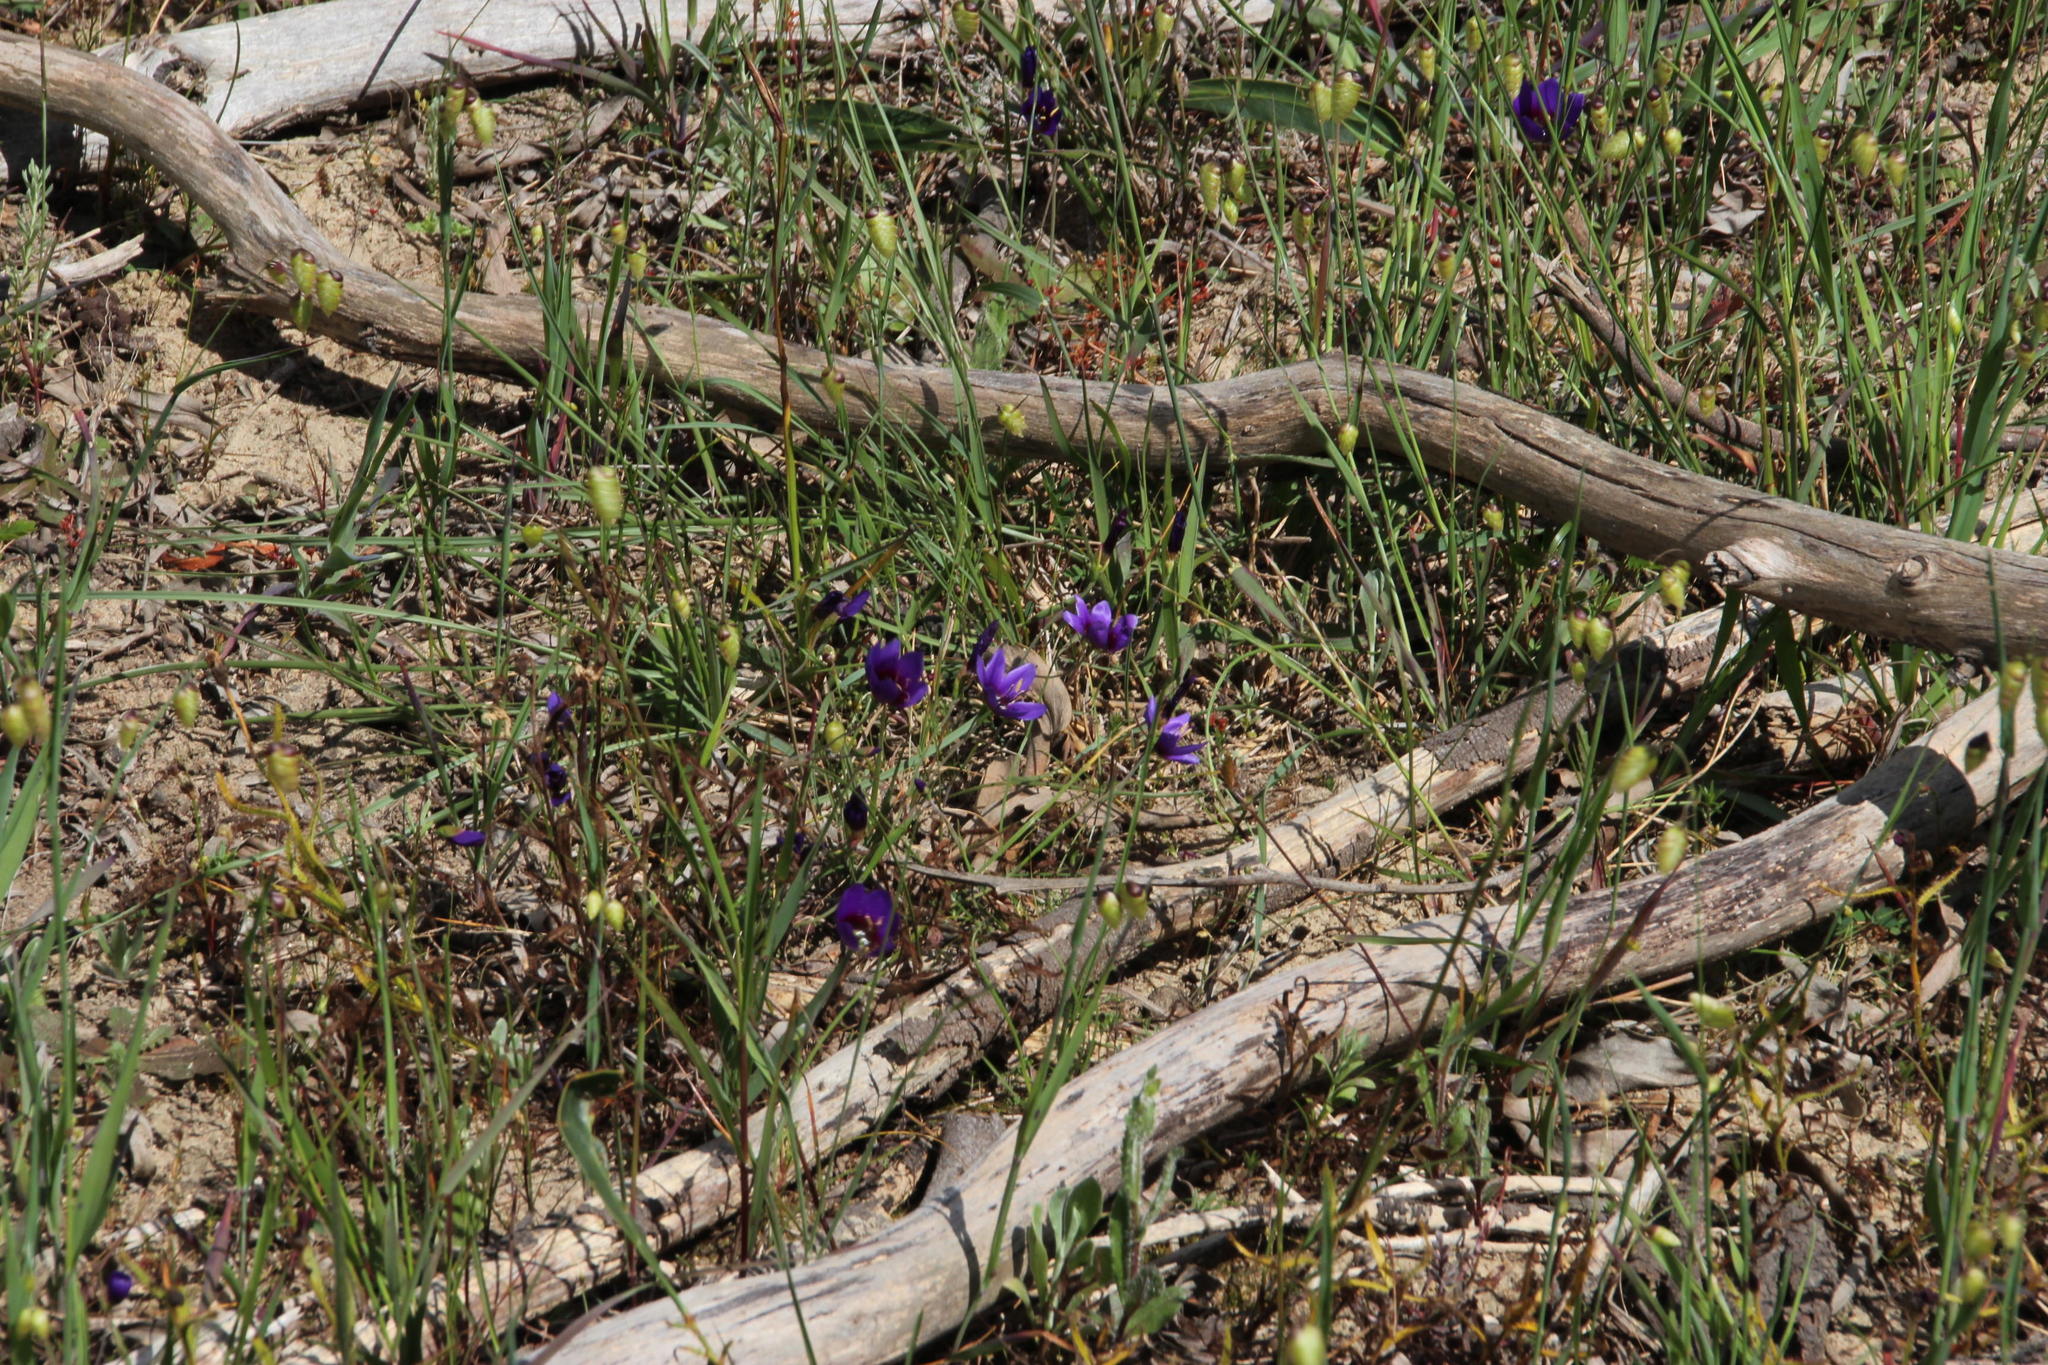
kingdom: Plantae
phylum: Tracheophyta
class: Liliopsida
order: Asparagales
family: Iridaceae
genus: Geissorhiza
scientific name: Geissorhiza monanthos
